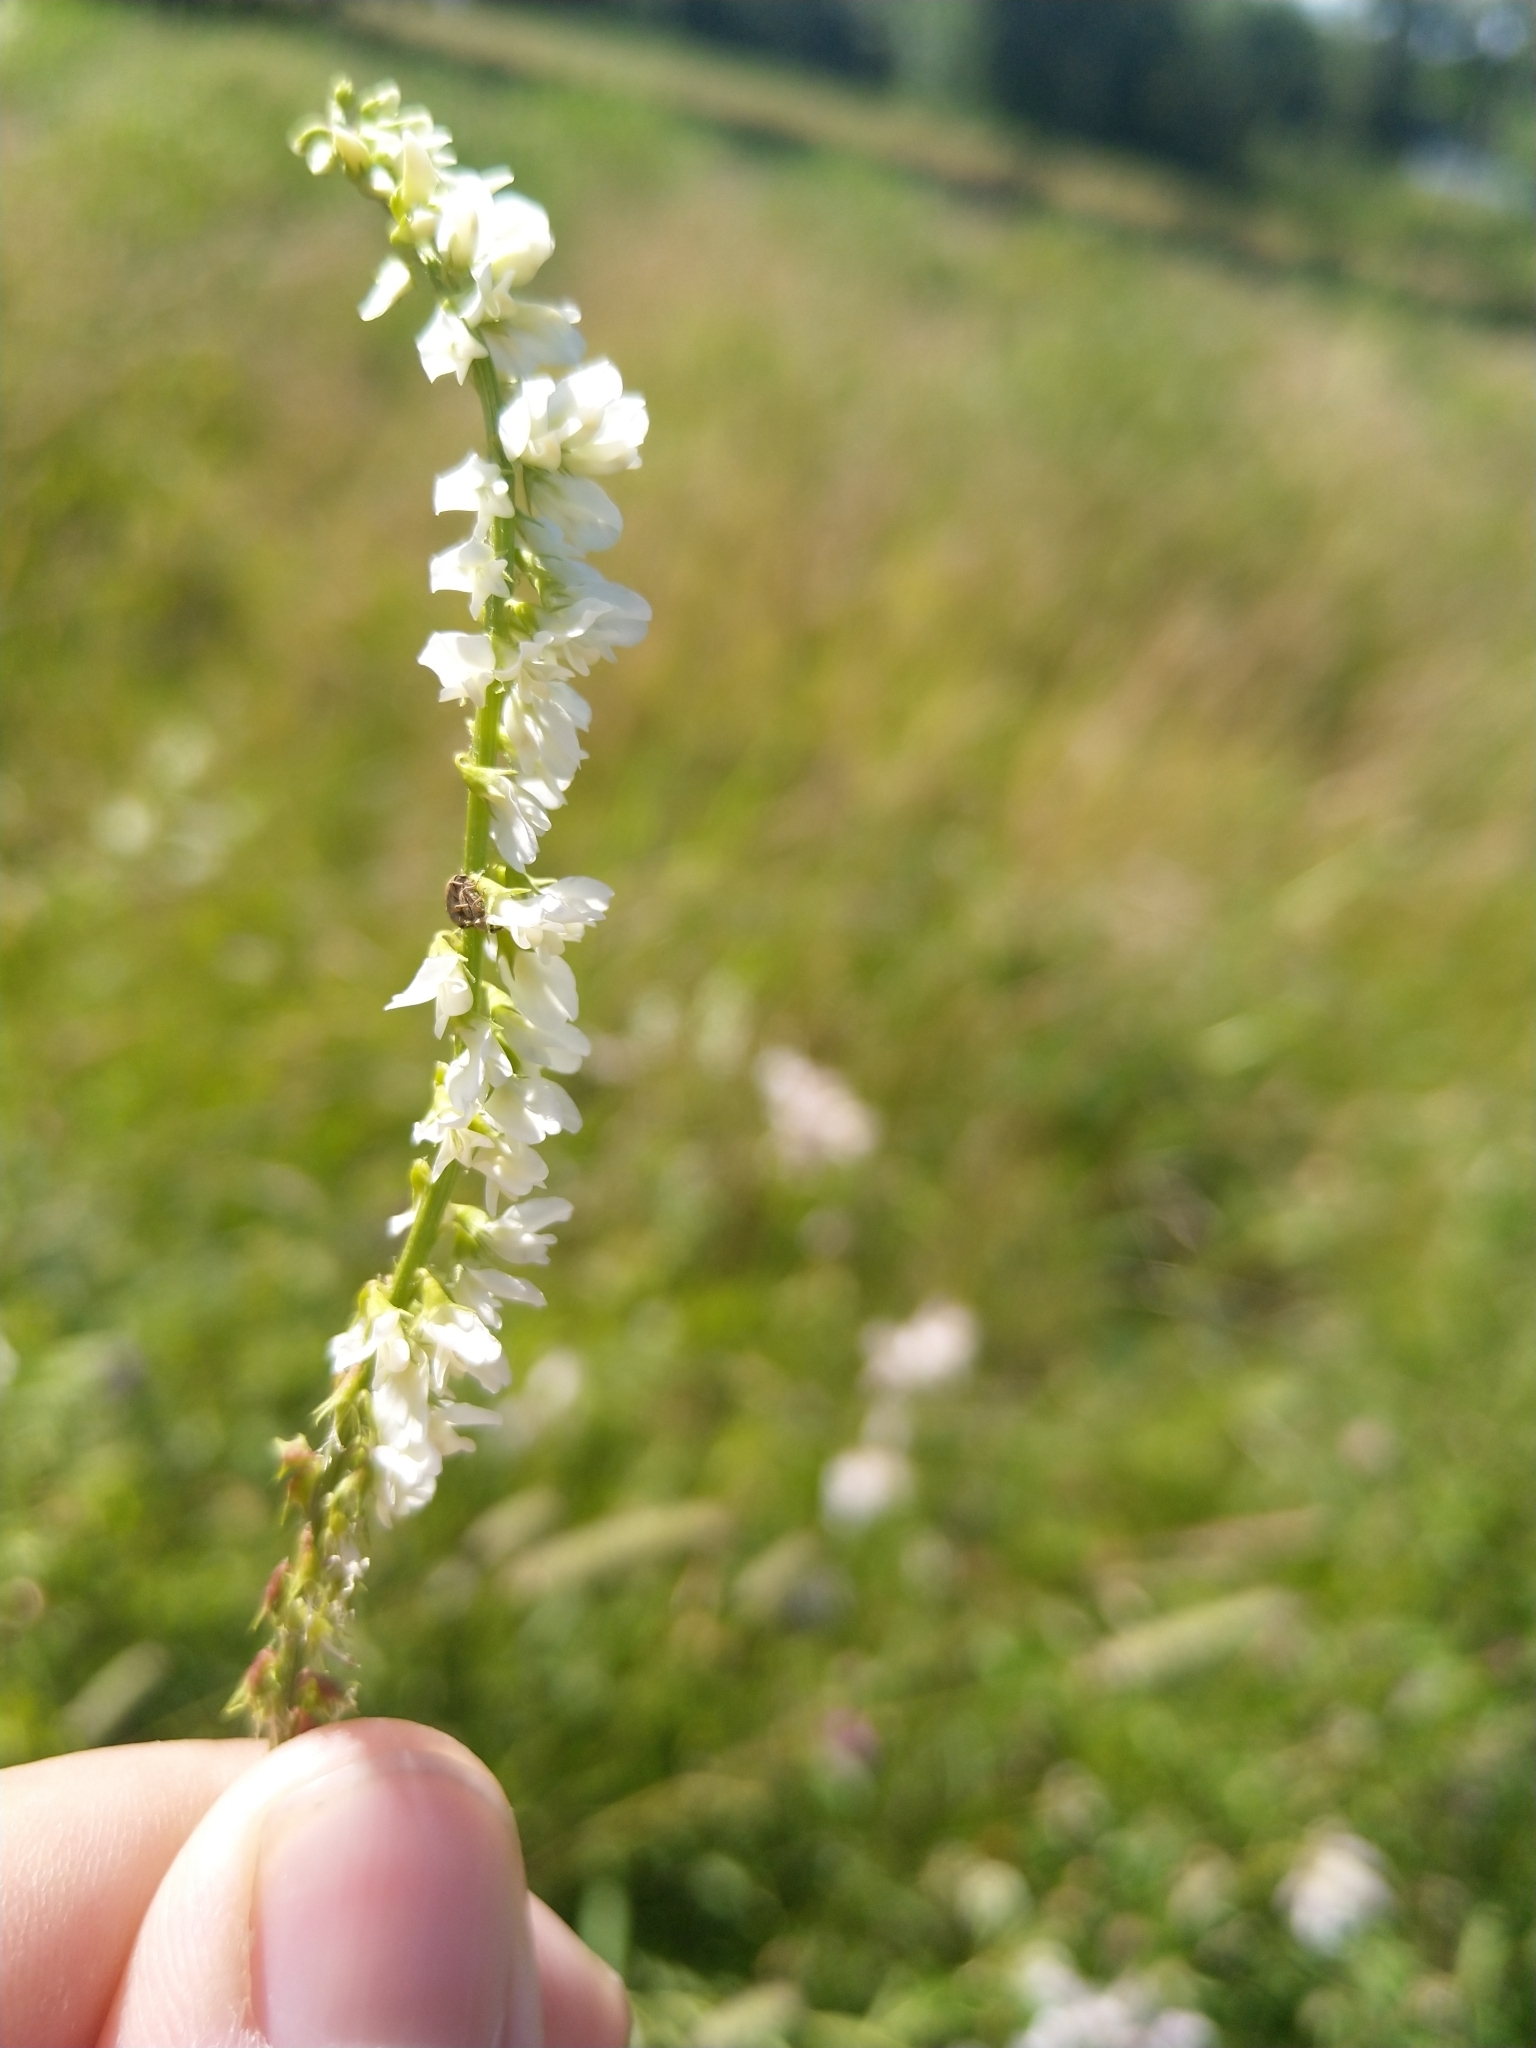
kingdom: Plantae
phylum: Tracheophyta
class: Magnoliopsida
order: Fabales
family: Fabaceae
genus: Melilotus
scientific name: Melilotus albus
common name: White melilot
